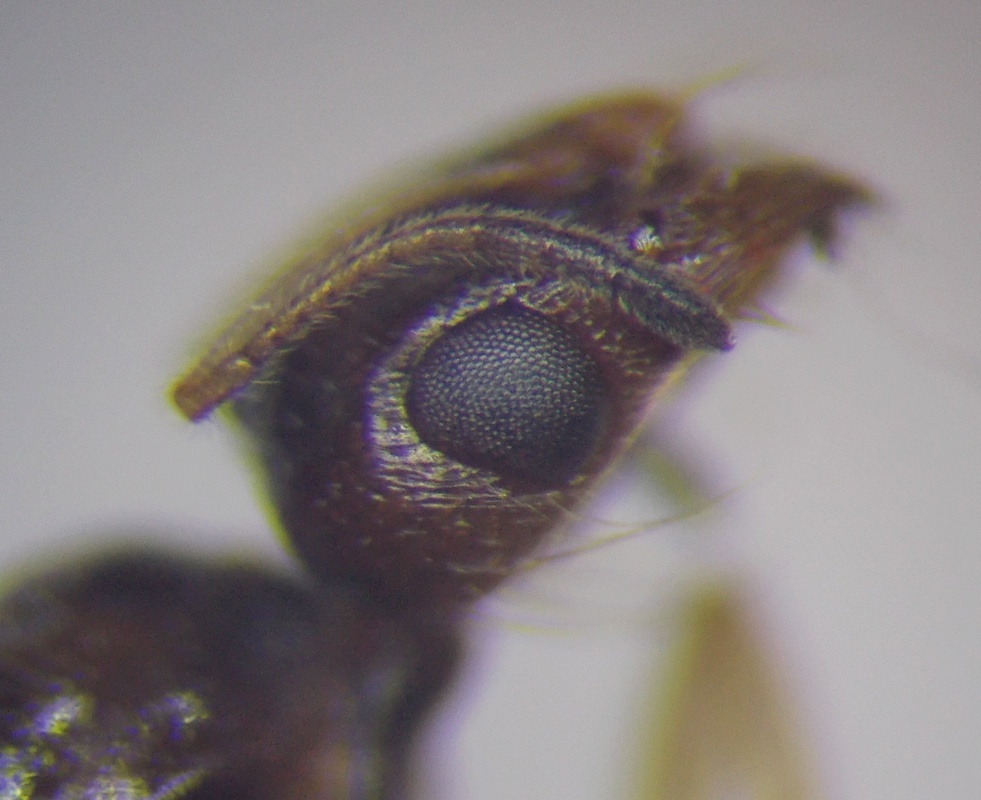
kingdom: Animalia
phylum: Arthropoda
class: Insecta
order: Hymenoptera
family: Formicidae
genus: Monomorium
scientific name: Monomorium barbatulum
